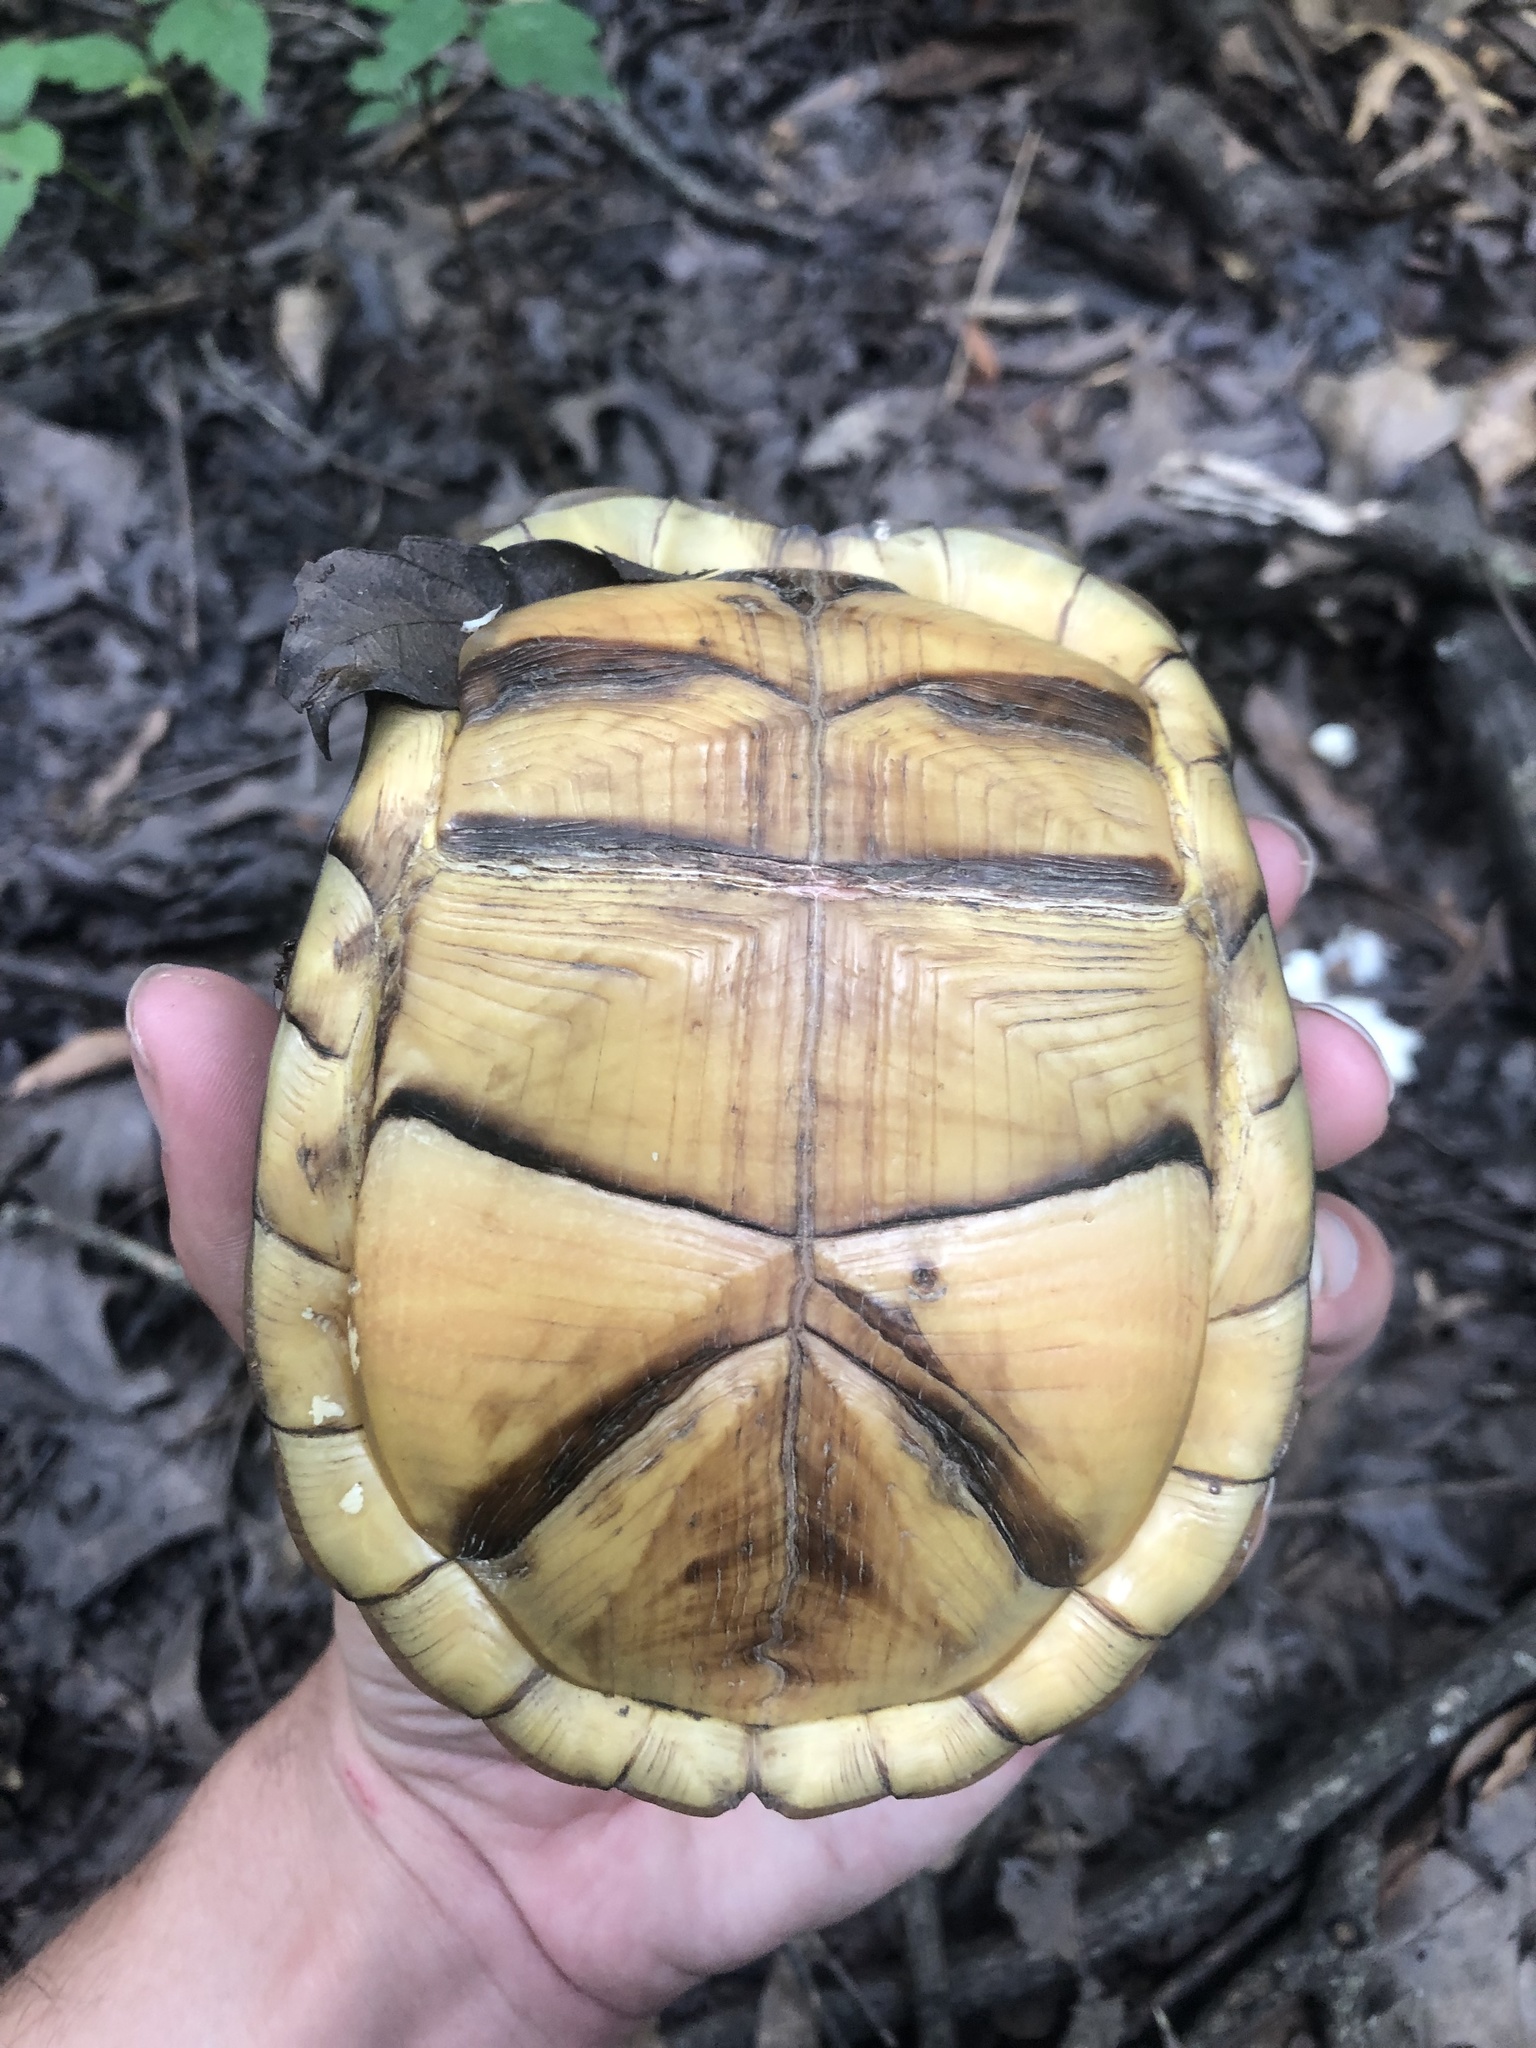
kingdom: Animalia
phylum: Chordata
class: Testudines
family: Emydidae
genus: Terrapene
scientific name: Terrapene carolina
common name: Common box turtle
